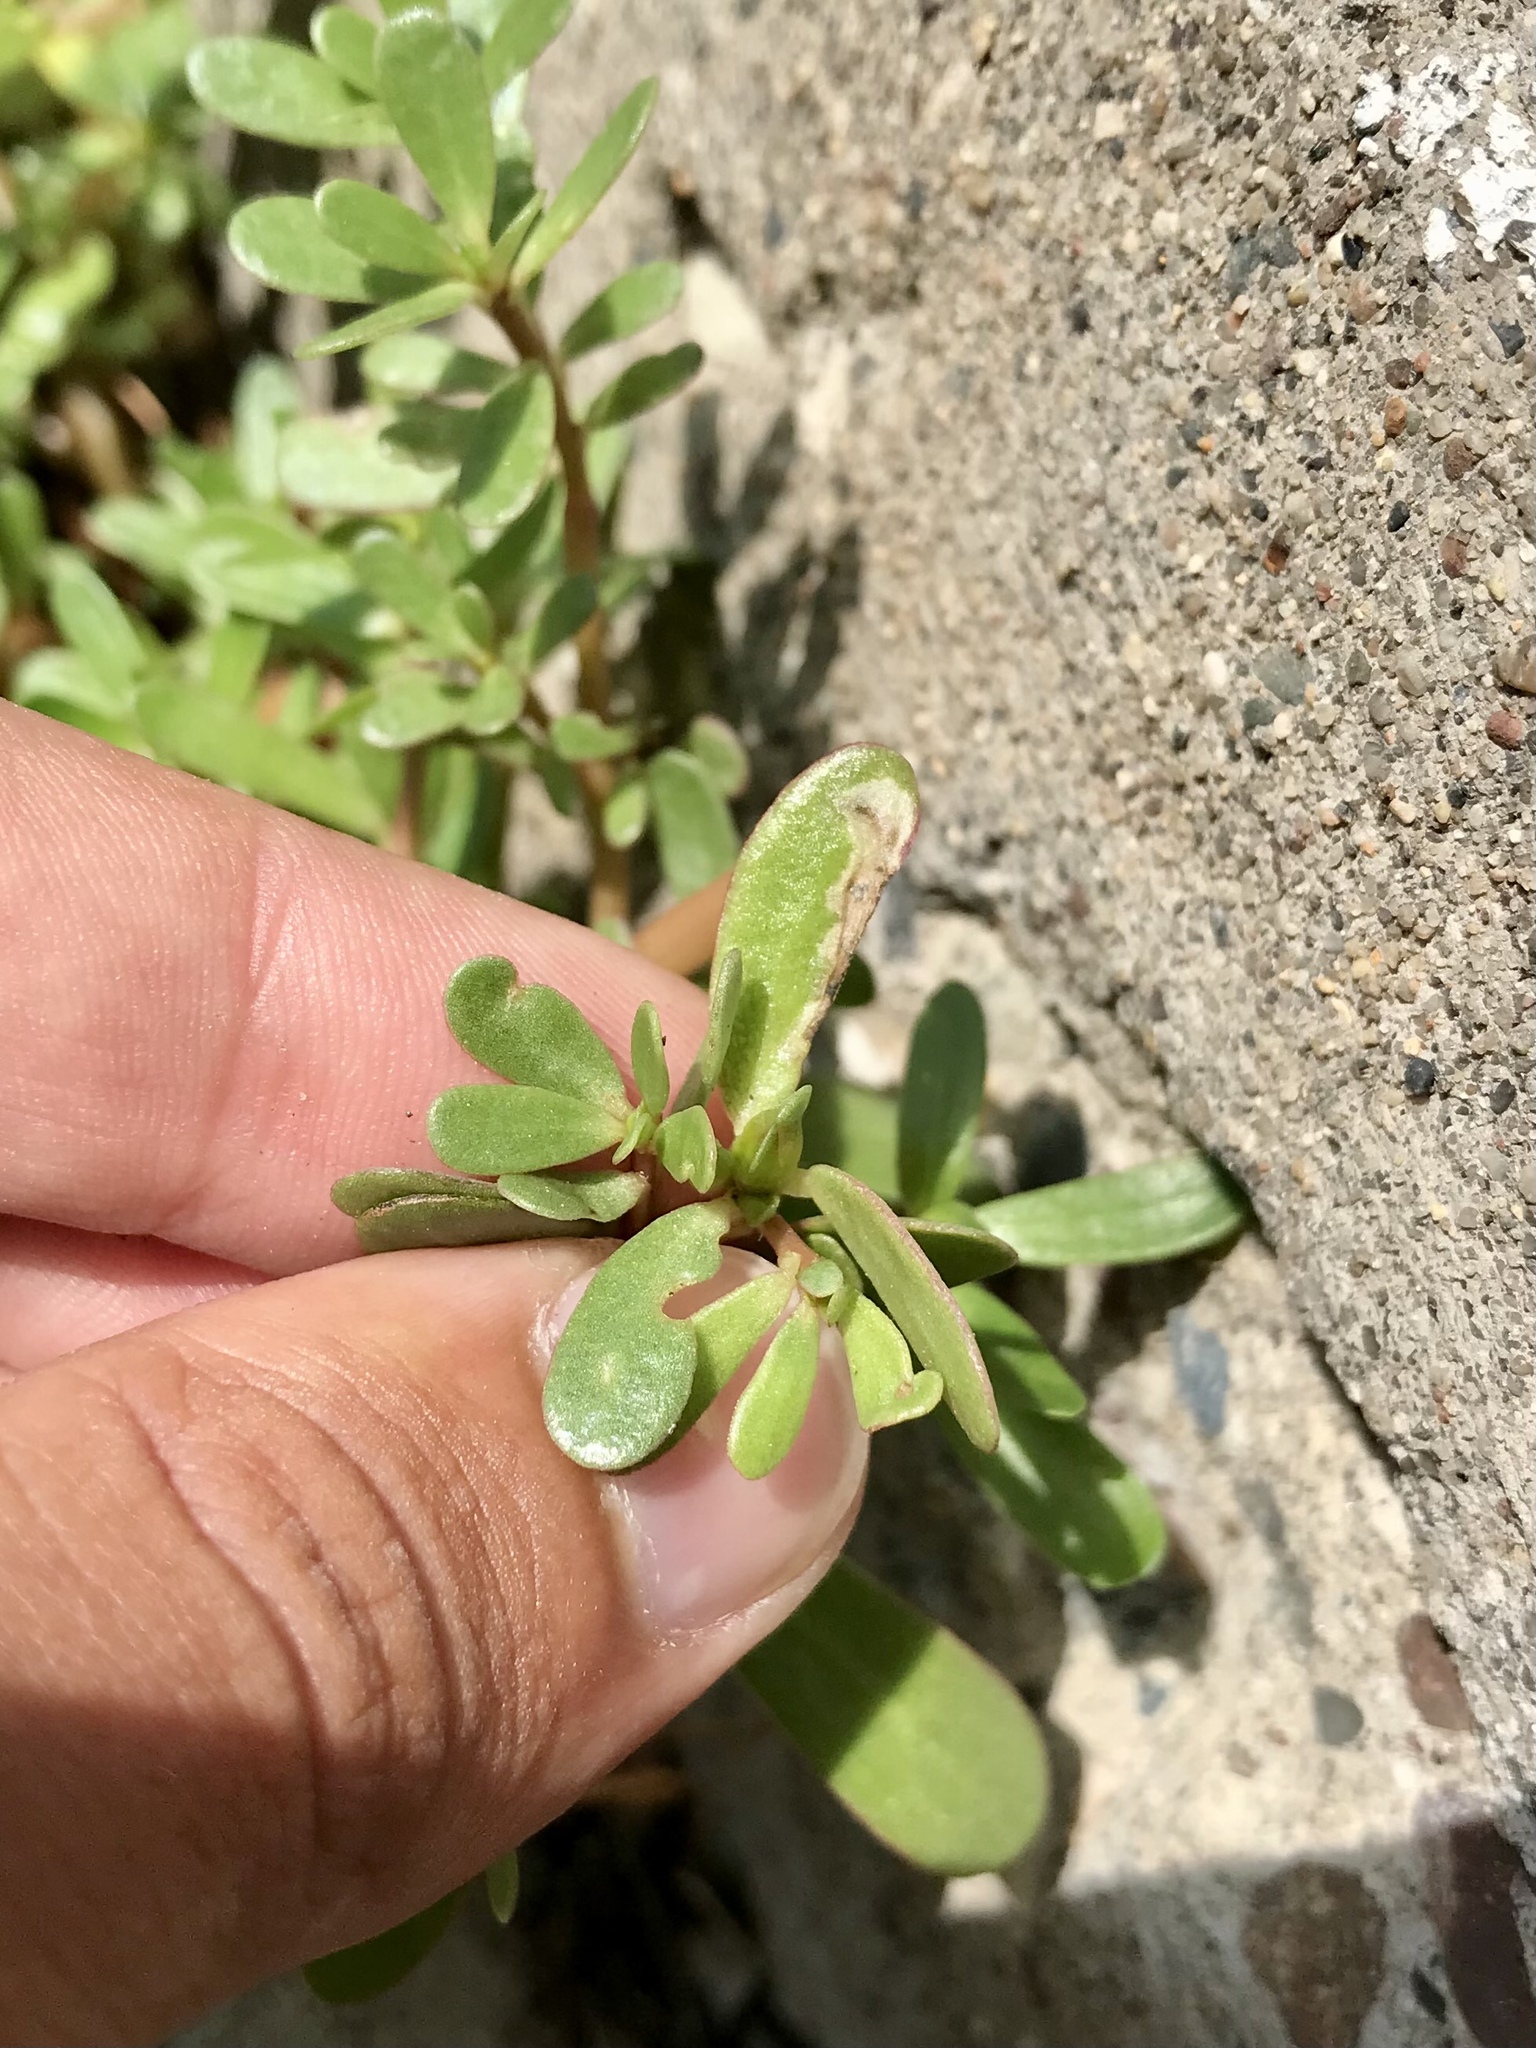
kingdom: Animalia
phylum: Arthropoda
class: Insecta
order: Hymenoptera
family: Argidae
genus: Schizocerella
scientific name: Schizocerella pilicornis
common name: Purslane sawfly
